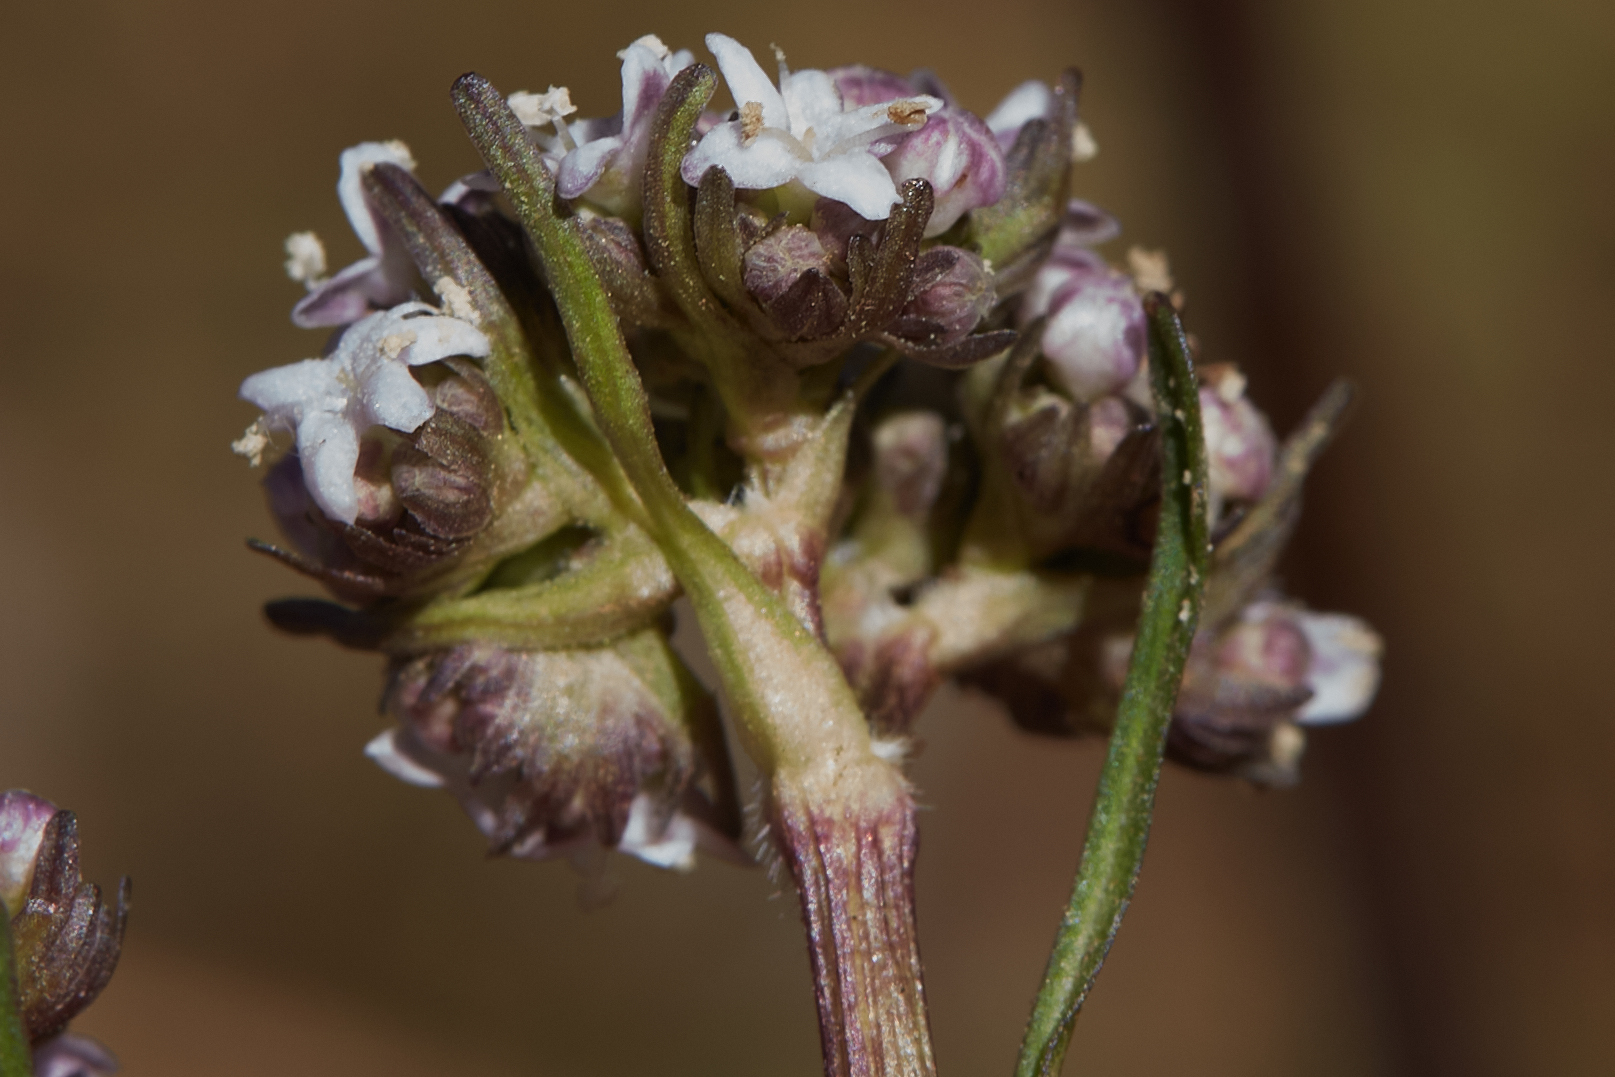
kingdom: Plantae
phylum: Tracheophyta
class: Magnoliopsida
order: Dipsacales
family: Caprifoliaceae
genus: Valeriana
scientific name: Valeriana prionophylla
